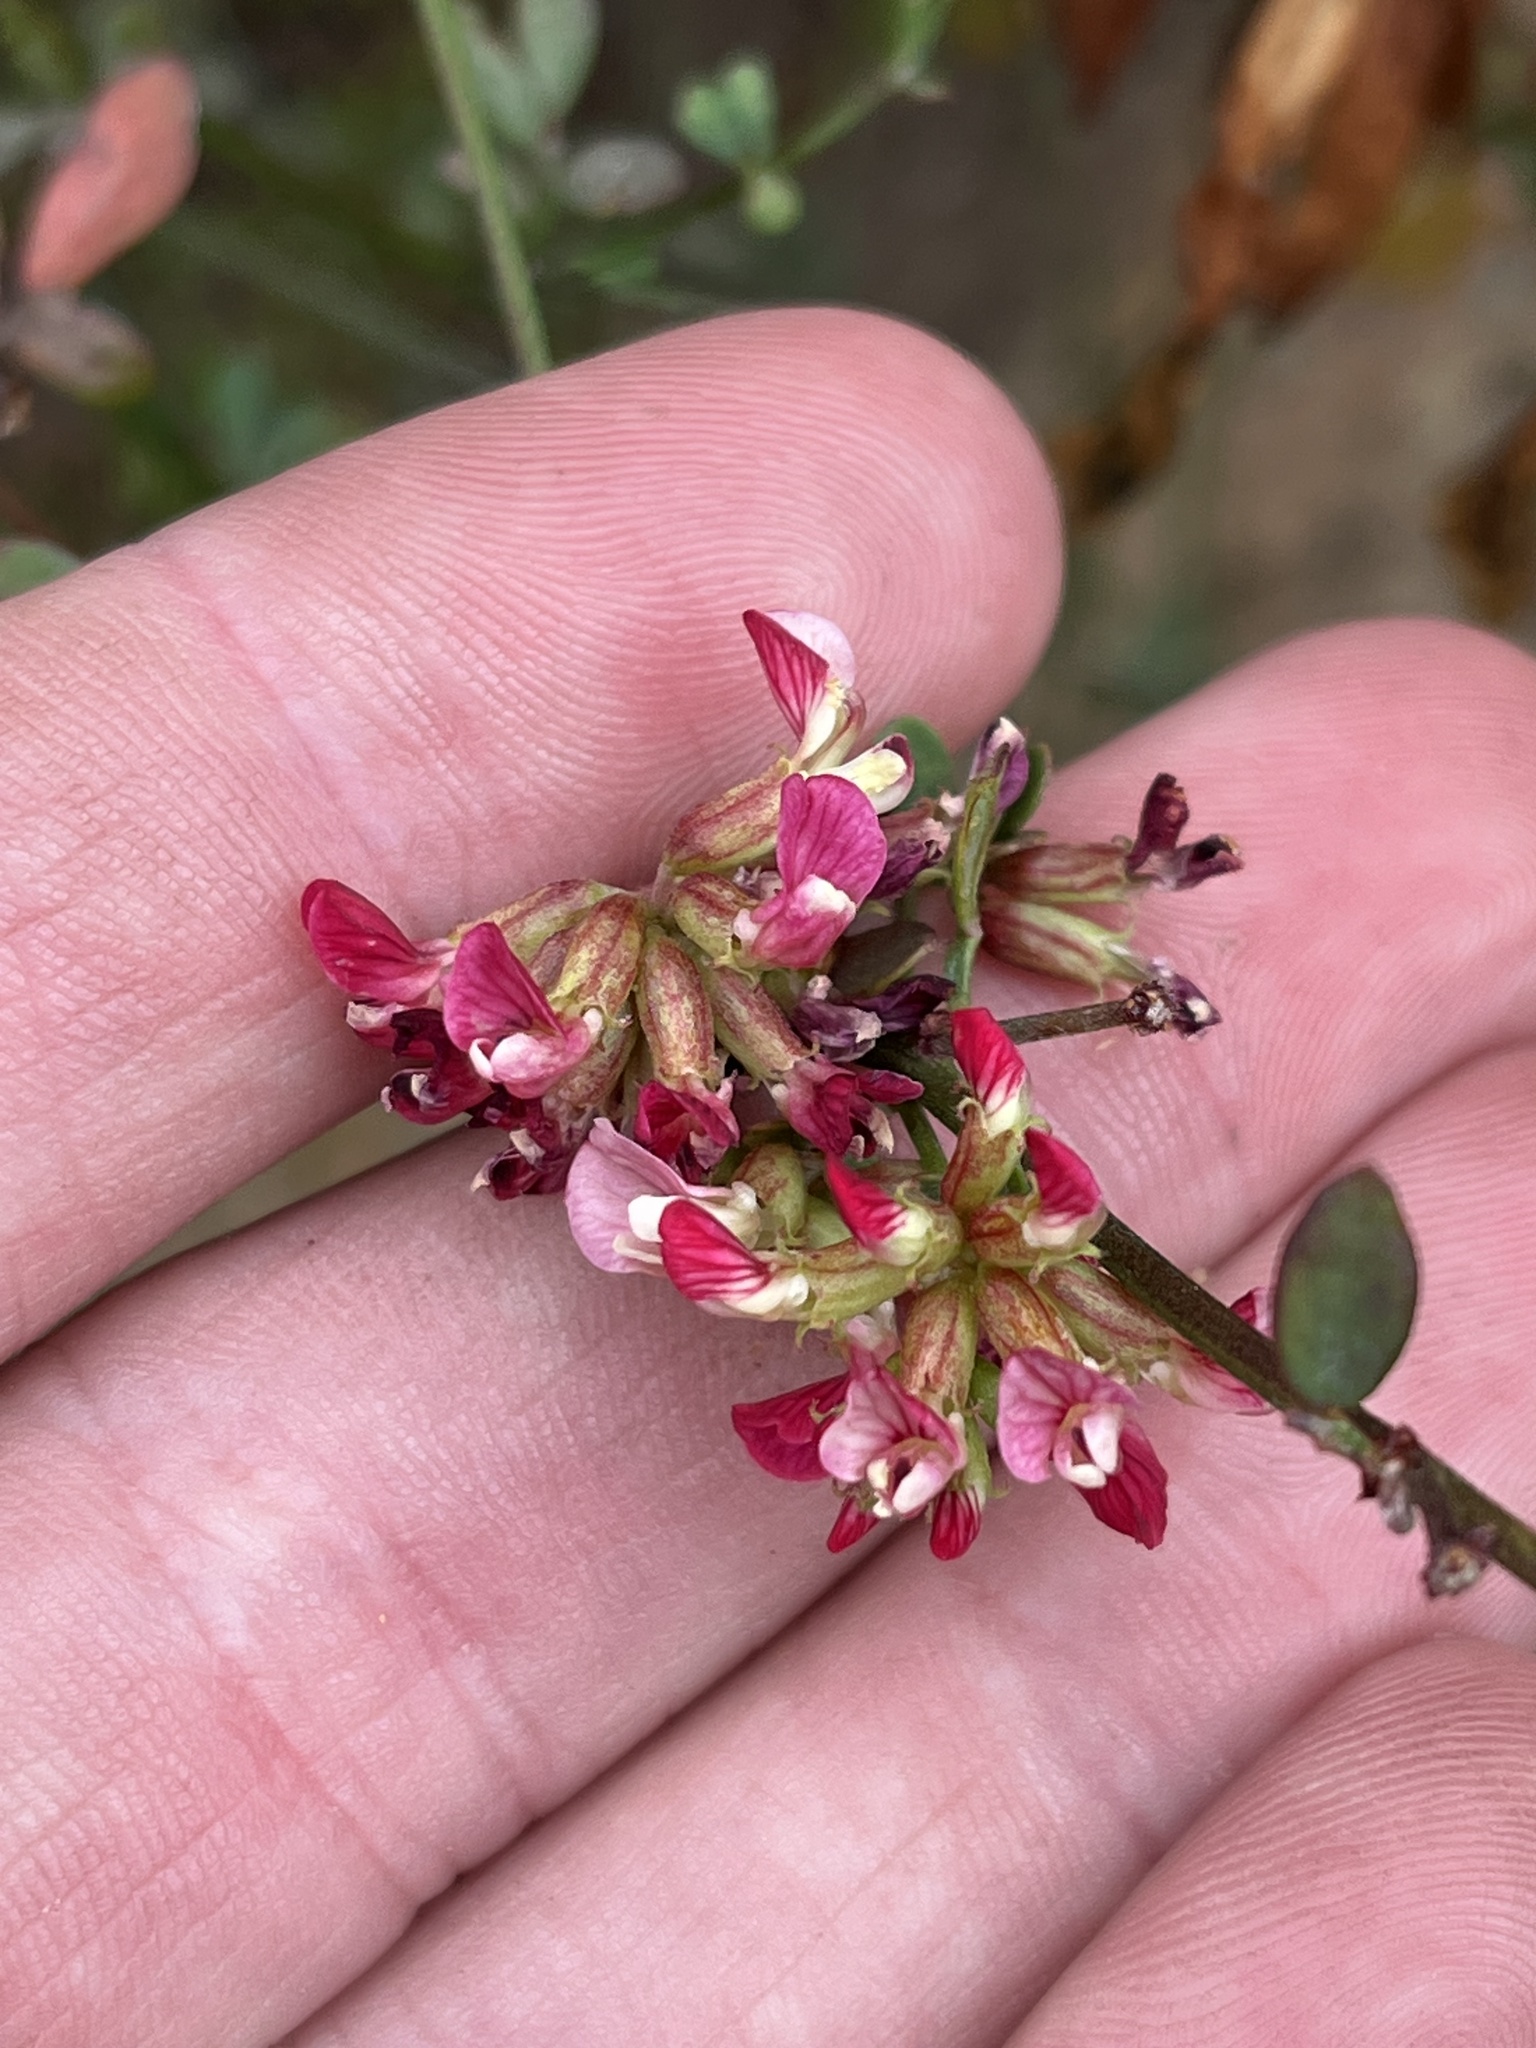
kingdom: Plantae
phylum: Tracheophyta
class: Magnoliopsida
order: Fabales
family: Fabaceae
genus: Acmispon
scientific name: Acmispon cytisoides
